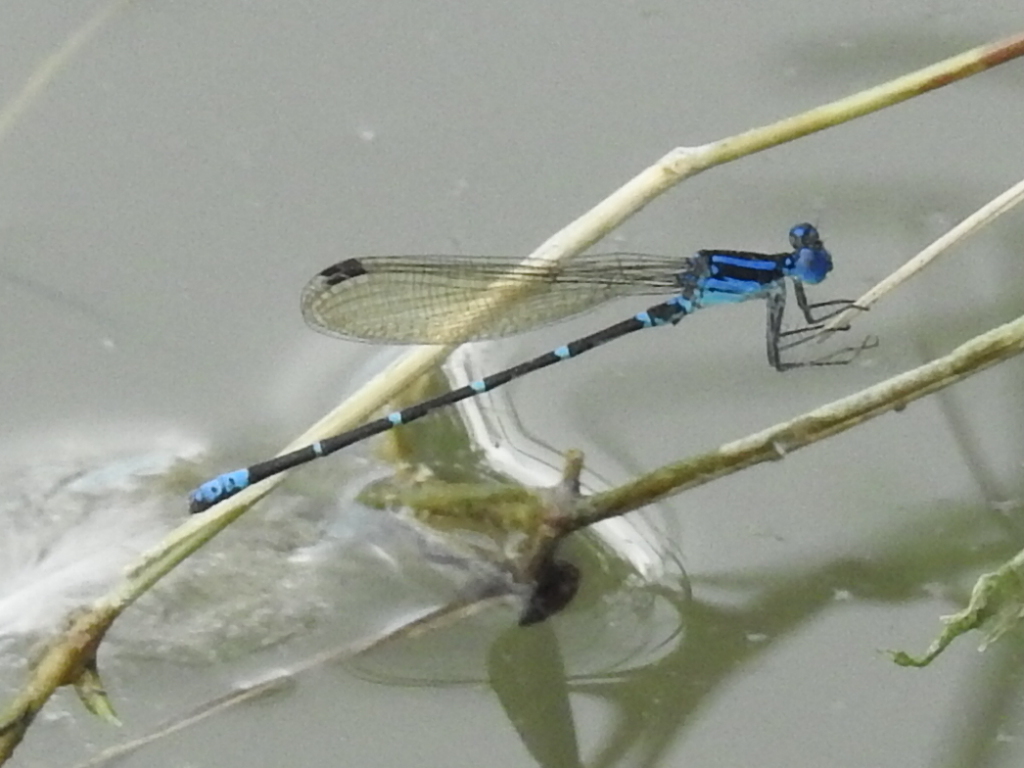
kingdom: Animalia
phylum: Arthropoda
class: Insecta
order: Odonata
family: Coenagrionidae
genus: Argia
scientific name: Argia sedula
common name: Blue-ringed dancer
